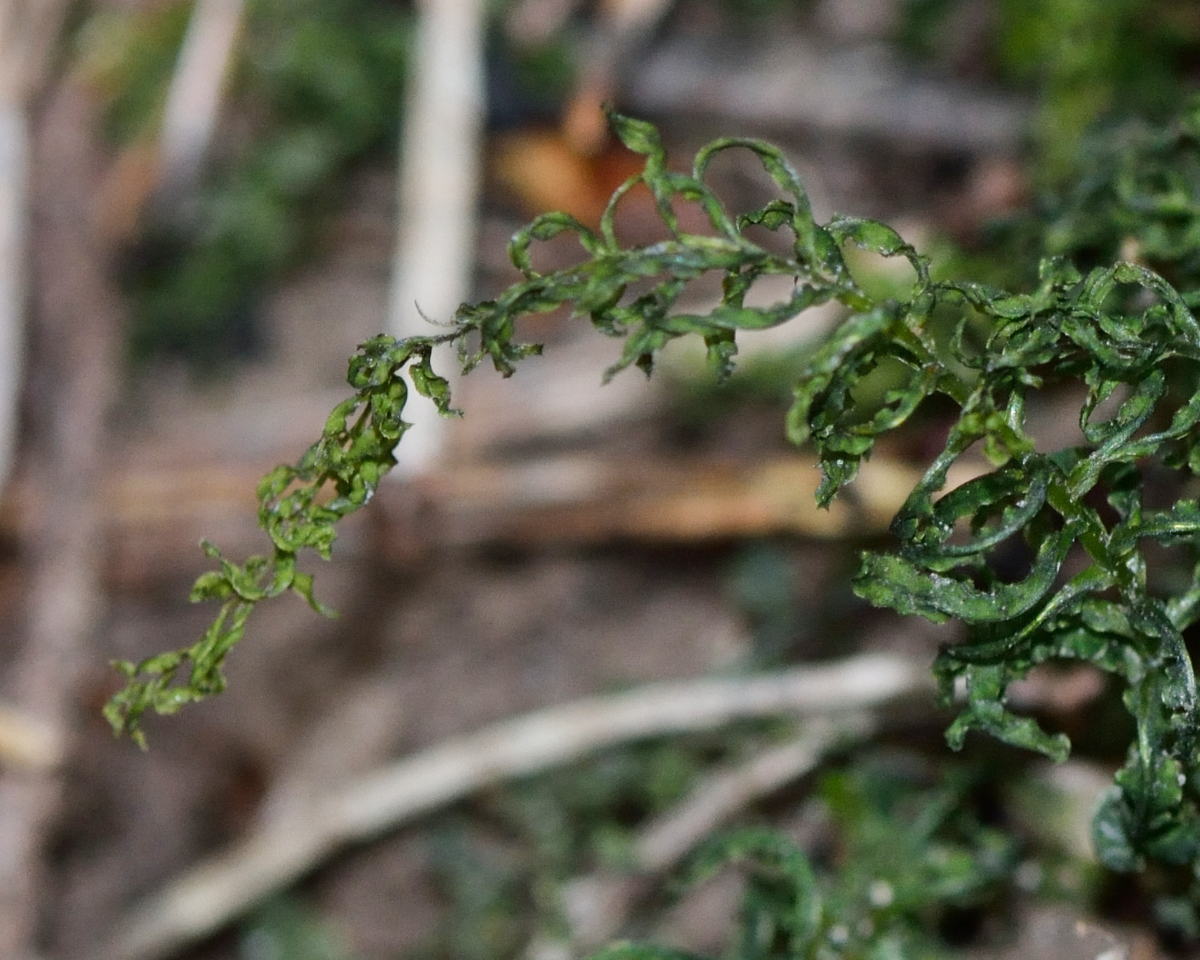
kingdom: Plantae
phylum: Bryophyta
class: Bryopsida
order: Bryales
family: Mniaceae
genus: Plagiomnium
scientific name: Plagiomnium undulatum
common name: Hart's-tongue thyme-moss
